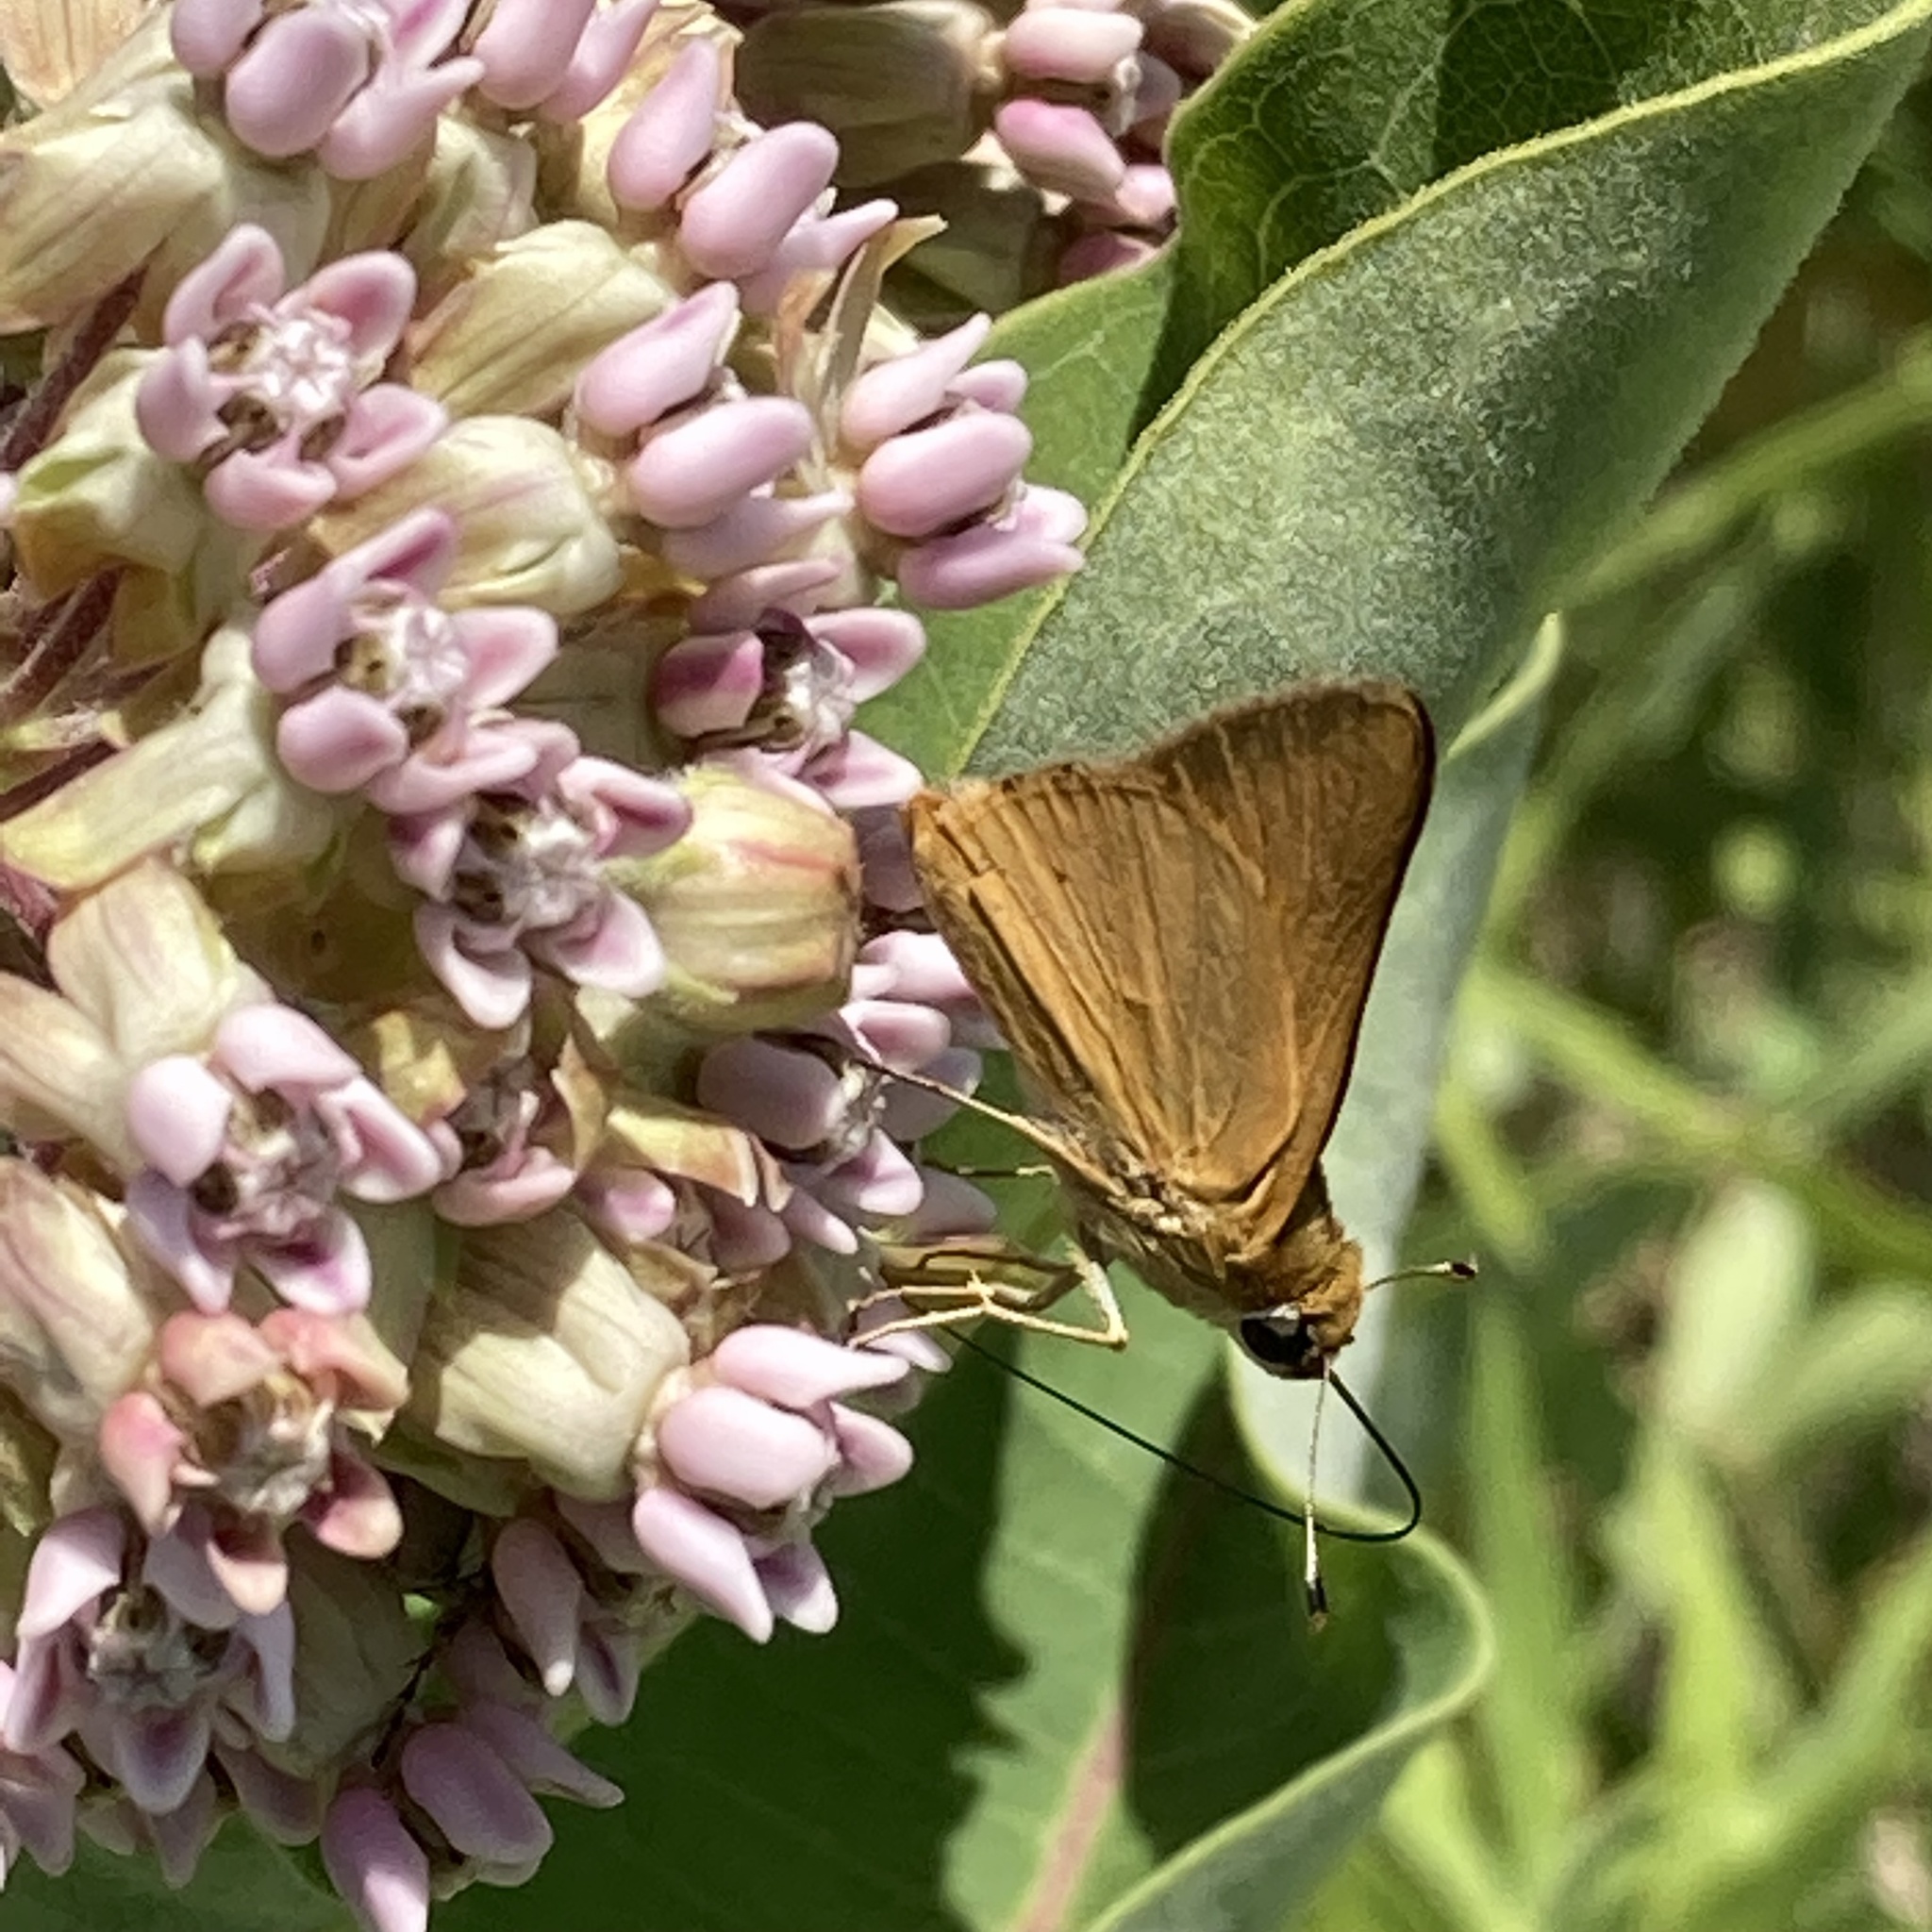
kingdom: Animalia
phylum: Arthropoda
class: Insecta
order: Lepidoptera
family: Hesperiidae
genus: Atrytone
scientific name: Atrytone delaware
